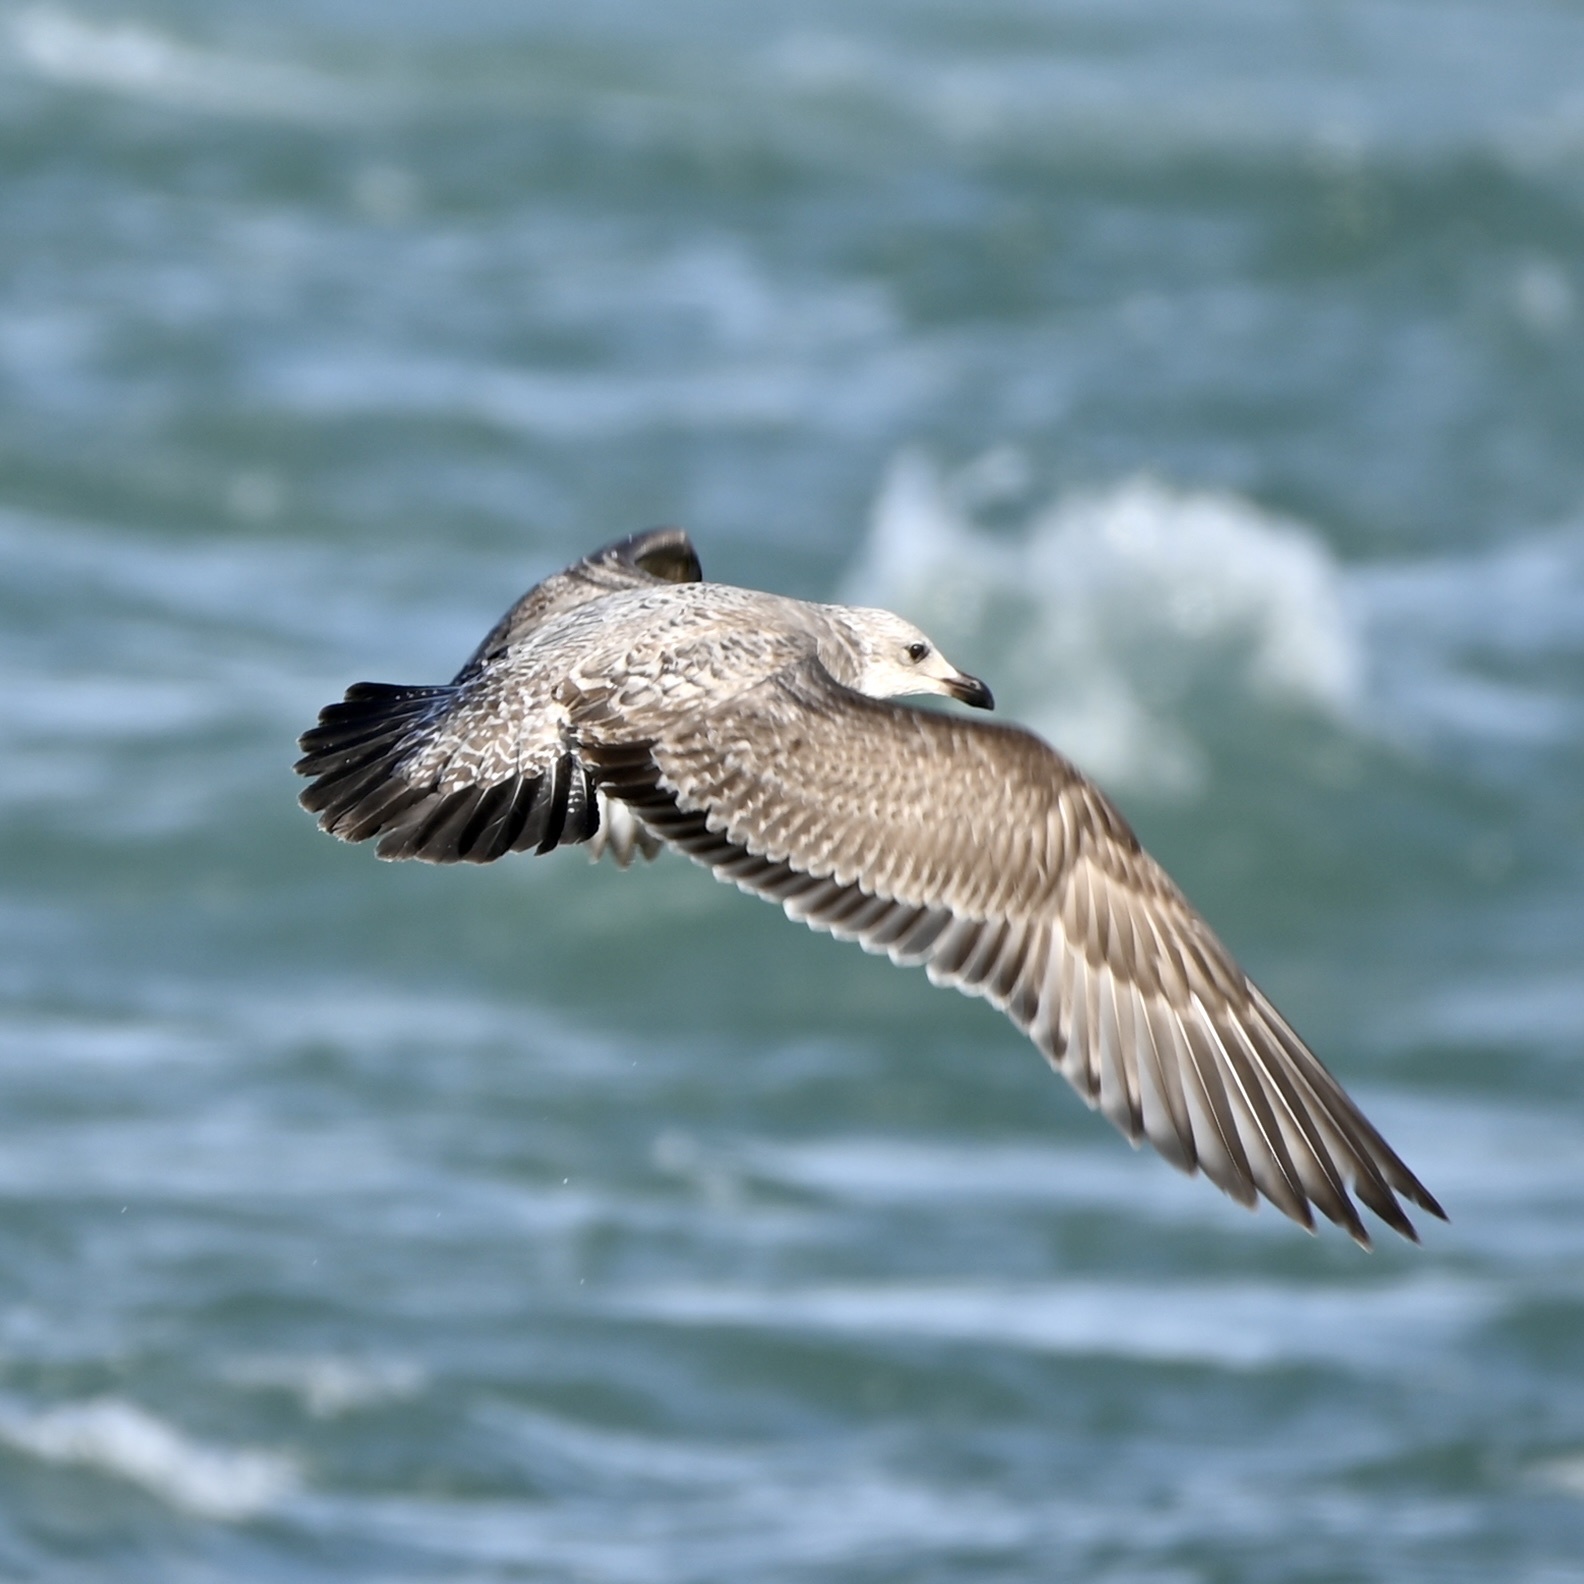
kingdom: Animalia
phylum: Chordata
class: Aves
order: Charadriiformes
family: Laridae
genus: Larus
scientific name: Larus argentatus
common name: Herring gull
